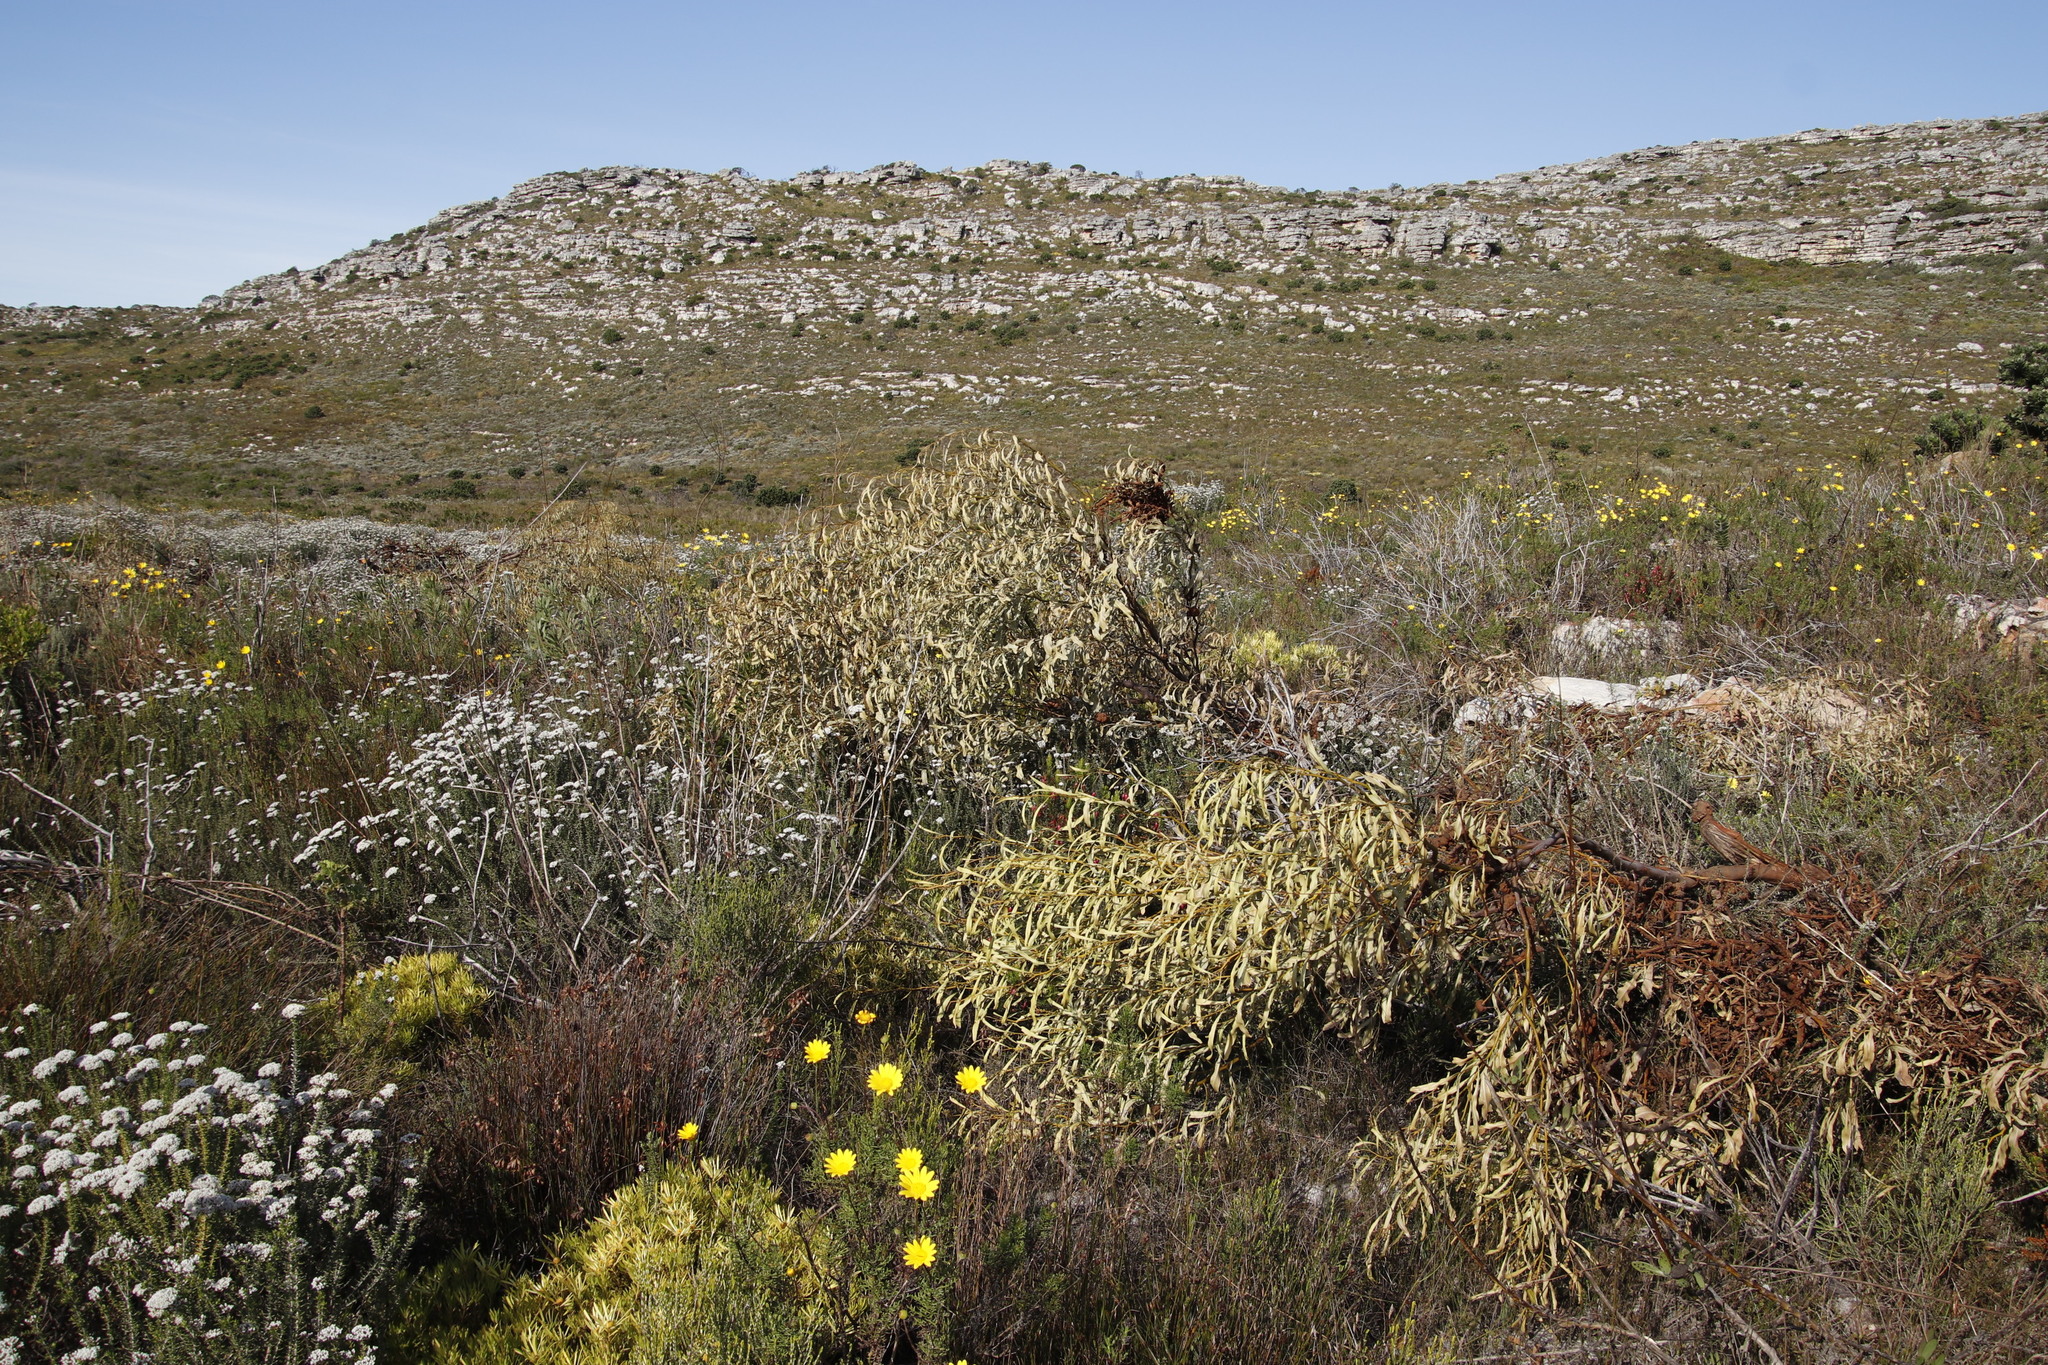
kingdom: Plantae
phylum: Tracheophyta
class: Magnoliopsida
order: Fabales
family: Fabaceae
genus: Acacia
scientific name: Acacia saligna
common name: Orange wattle
